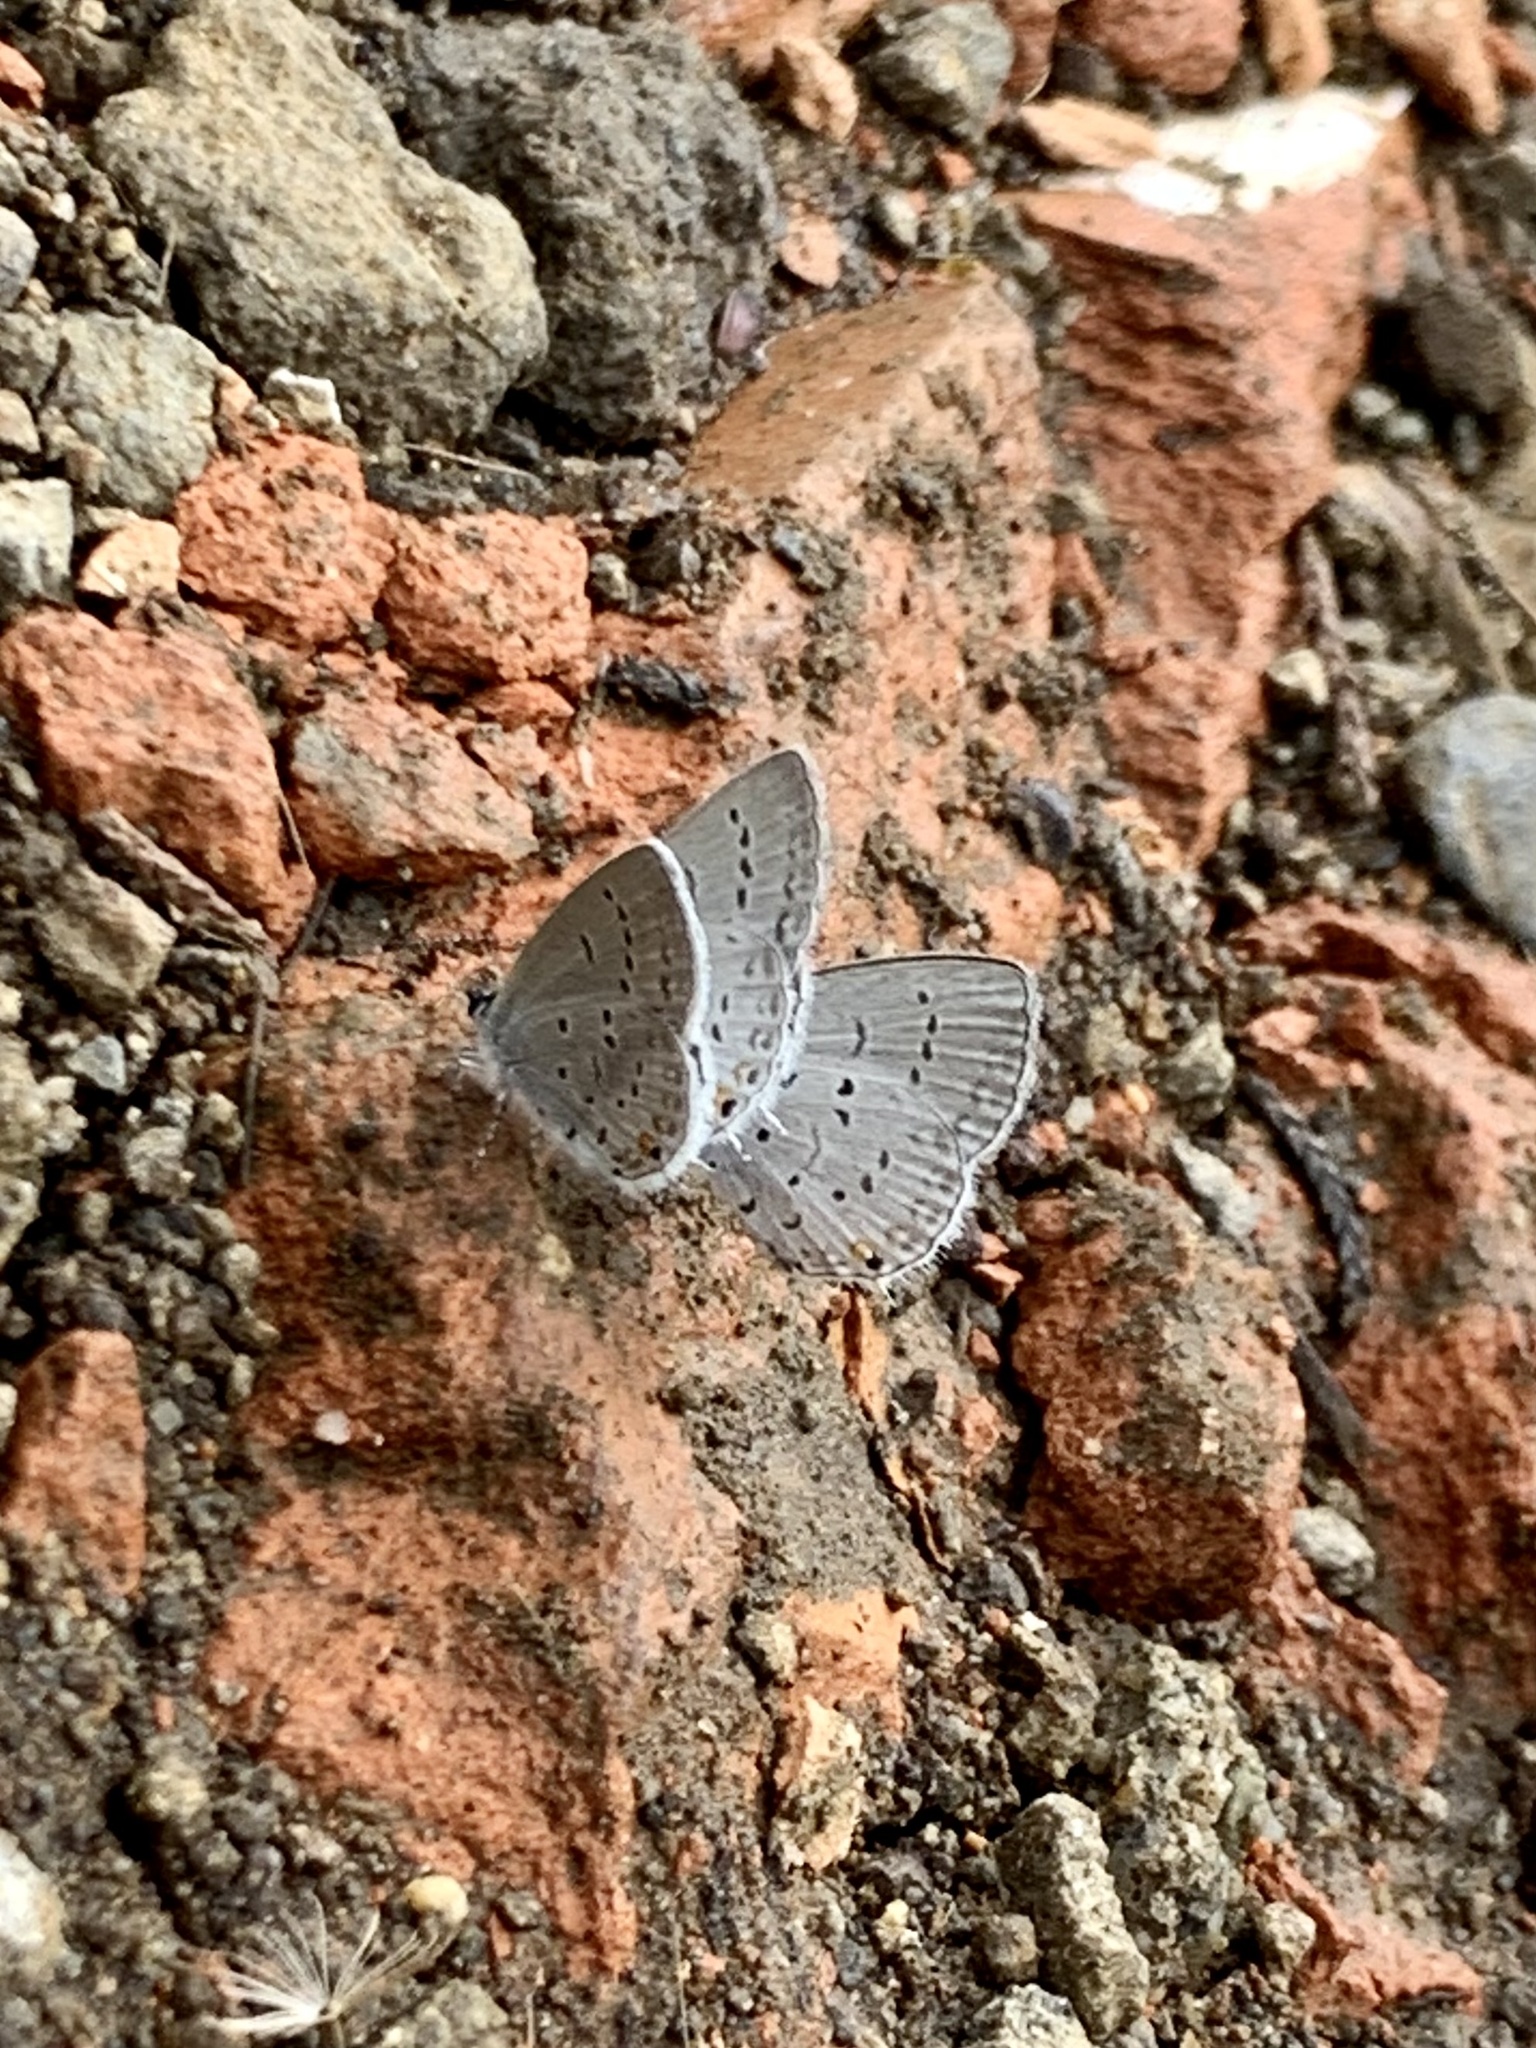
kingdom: Animalia
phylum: Arthropoda
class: Insecta
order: Lepidoptera
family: Lycaenidae
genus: Elkalyce
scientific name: Elkalyce comyntas
